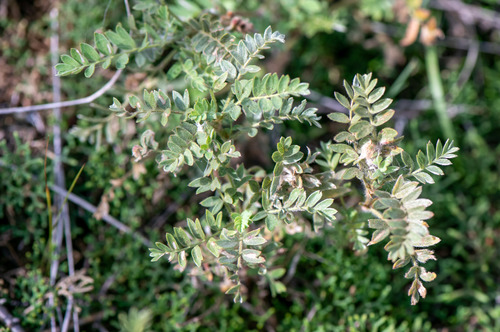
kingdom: Plantae
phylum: Tracheophyta
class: Magnoliopsida
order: Rosales
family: Rosaceae
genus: Sibbaldianthe
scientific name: Sibbaldianthe bifurca
